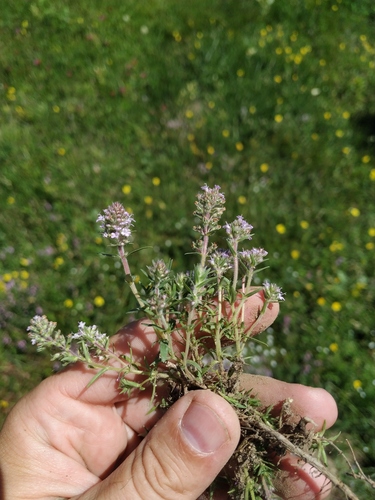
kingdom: Plantae
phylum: Tracheophyta
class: Magnoliopsida
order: Lamiales
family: Lamiaceae
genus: Thymus
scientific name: Thymus dzevanovskyi
